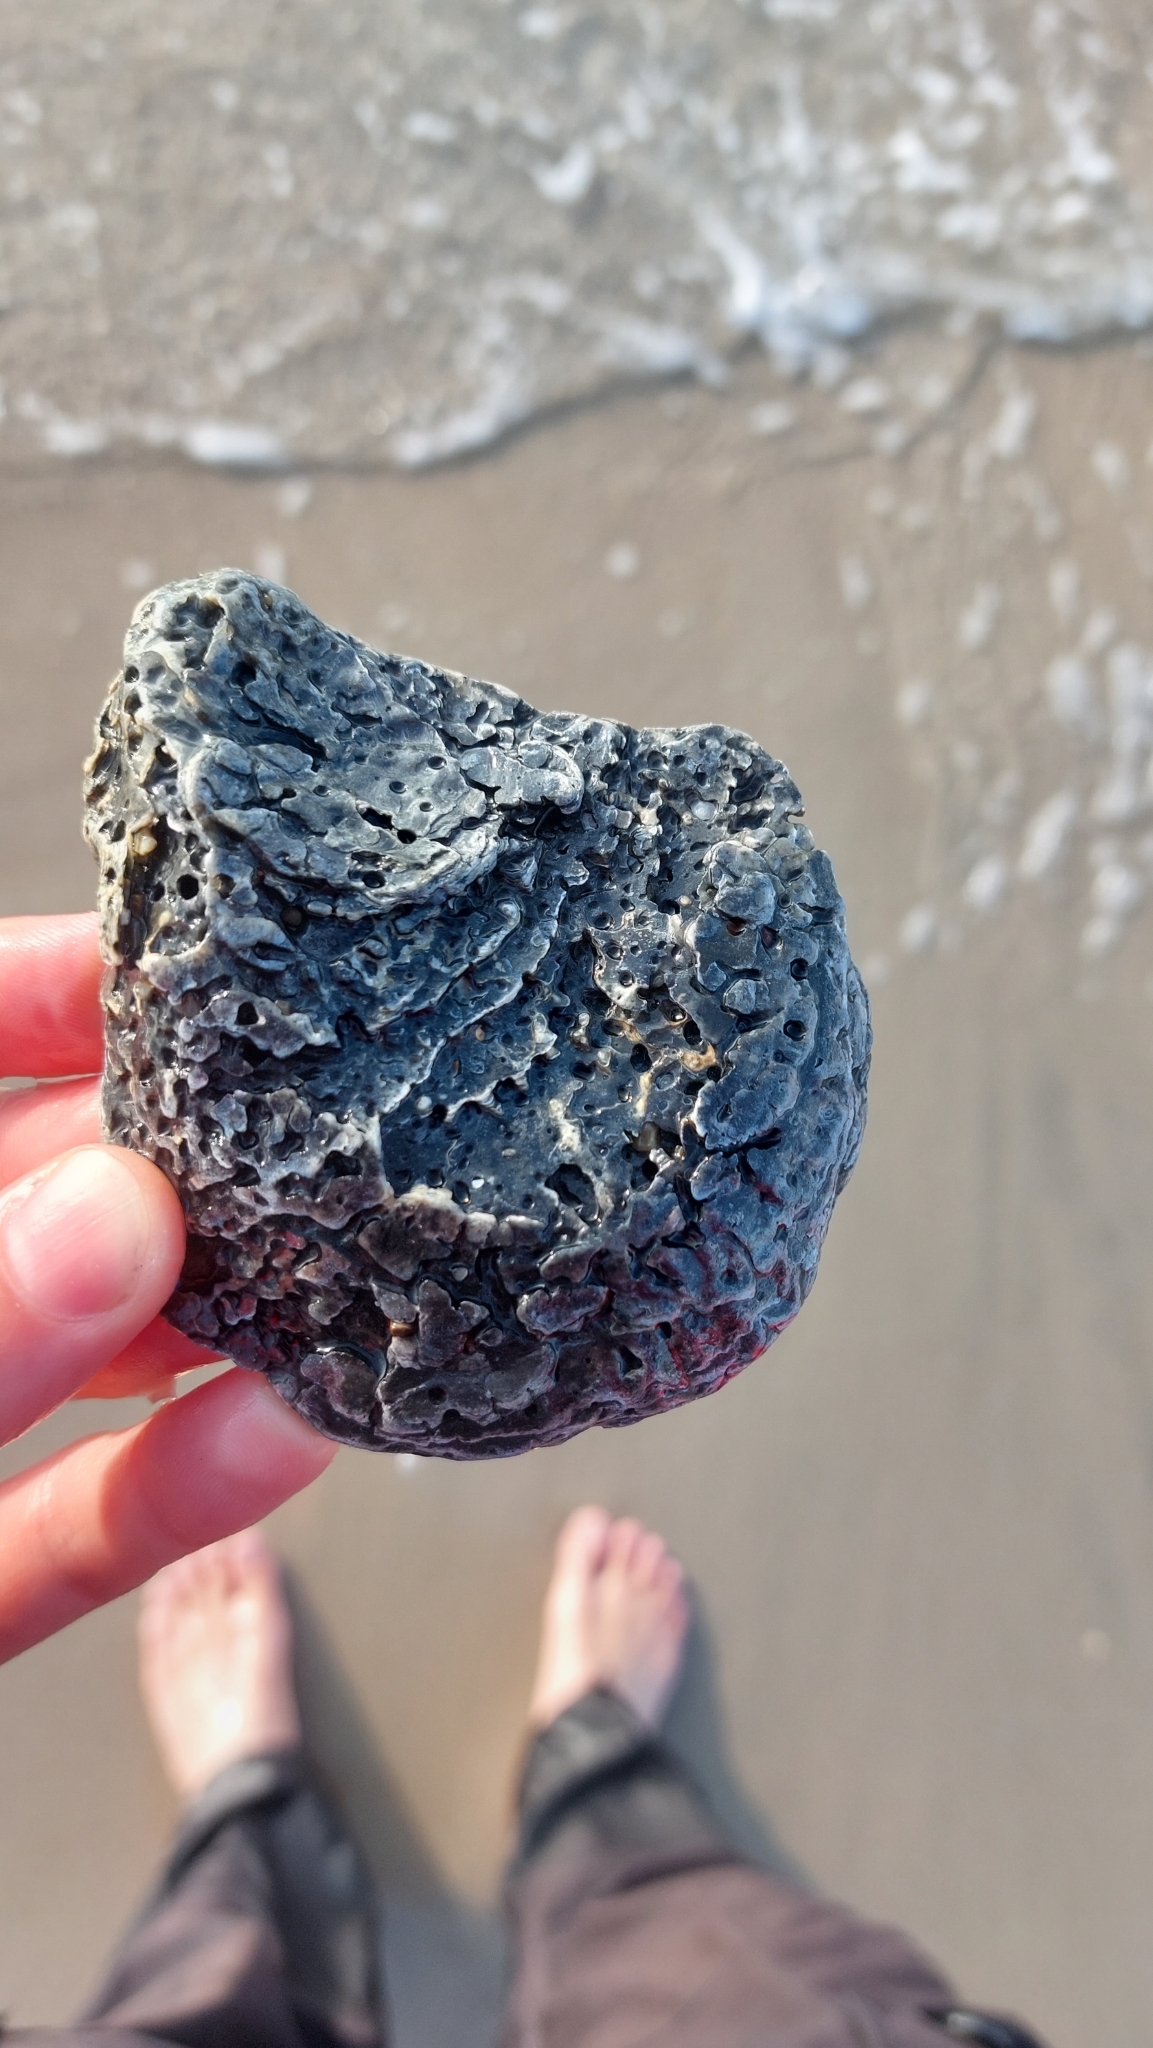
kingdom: Animalia
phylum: Mollusca
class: Bivalvia
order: Ostreida
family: Ostreidae
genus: Ostrea
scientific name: Ostrea edulis
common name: Flat oyster
